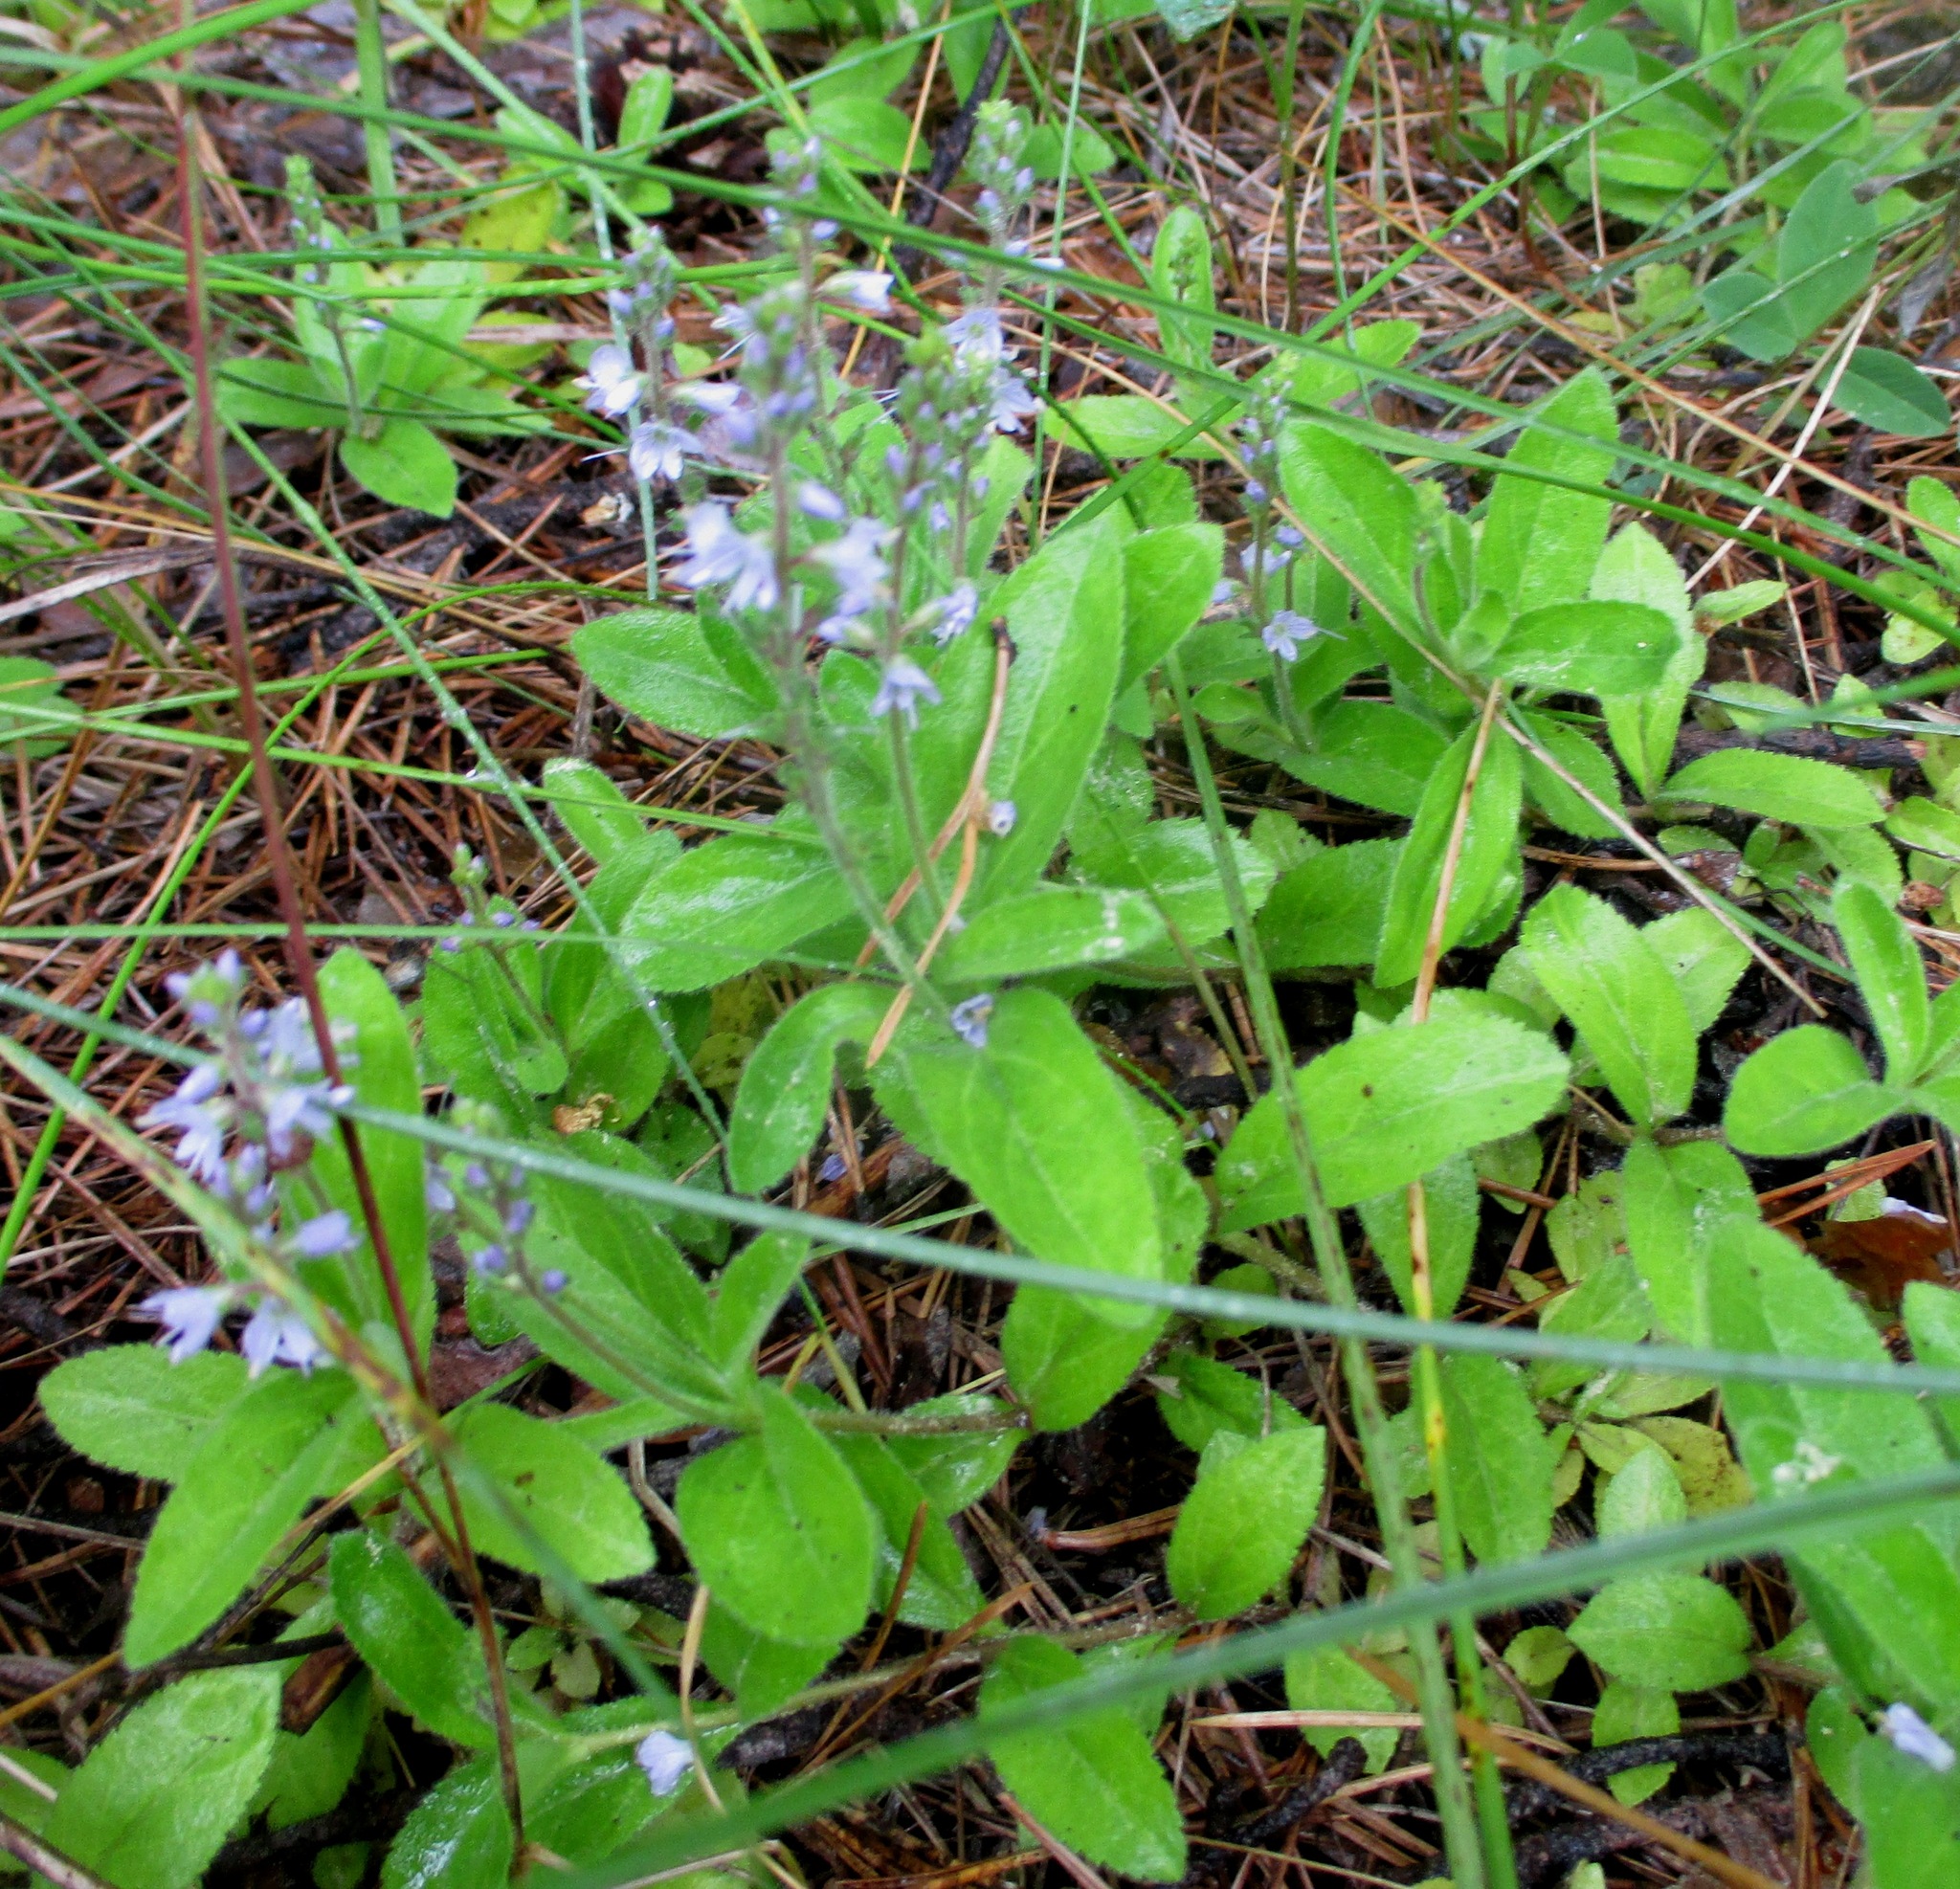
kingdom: Plantae
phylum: Tracheophyta
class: Magnoliopsida
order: Lamiales
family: Plantaginaceae
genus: Veronica
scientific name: Veronica officinalis
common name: Common speedwell
